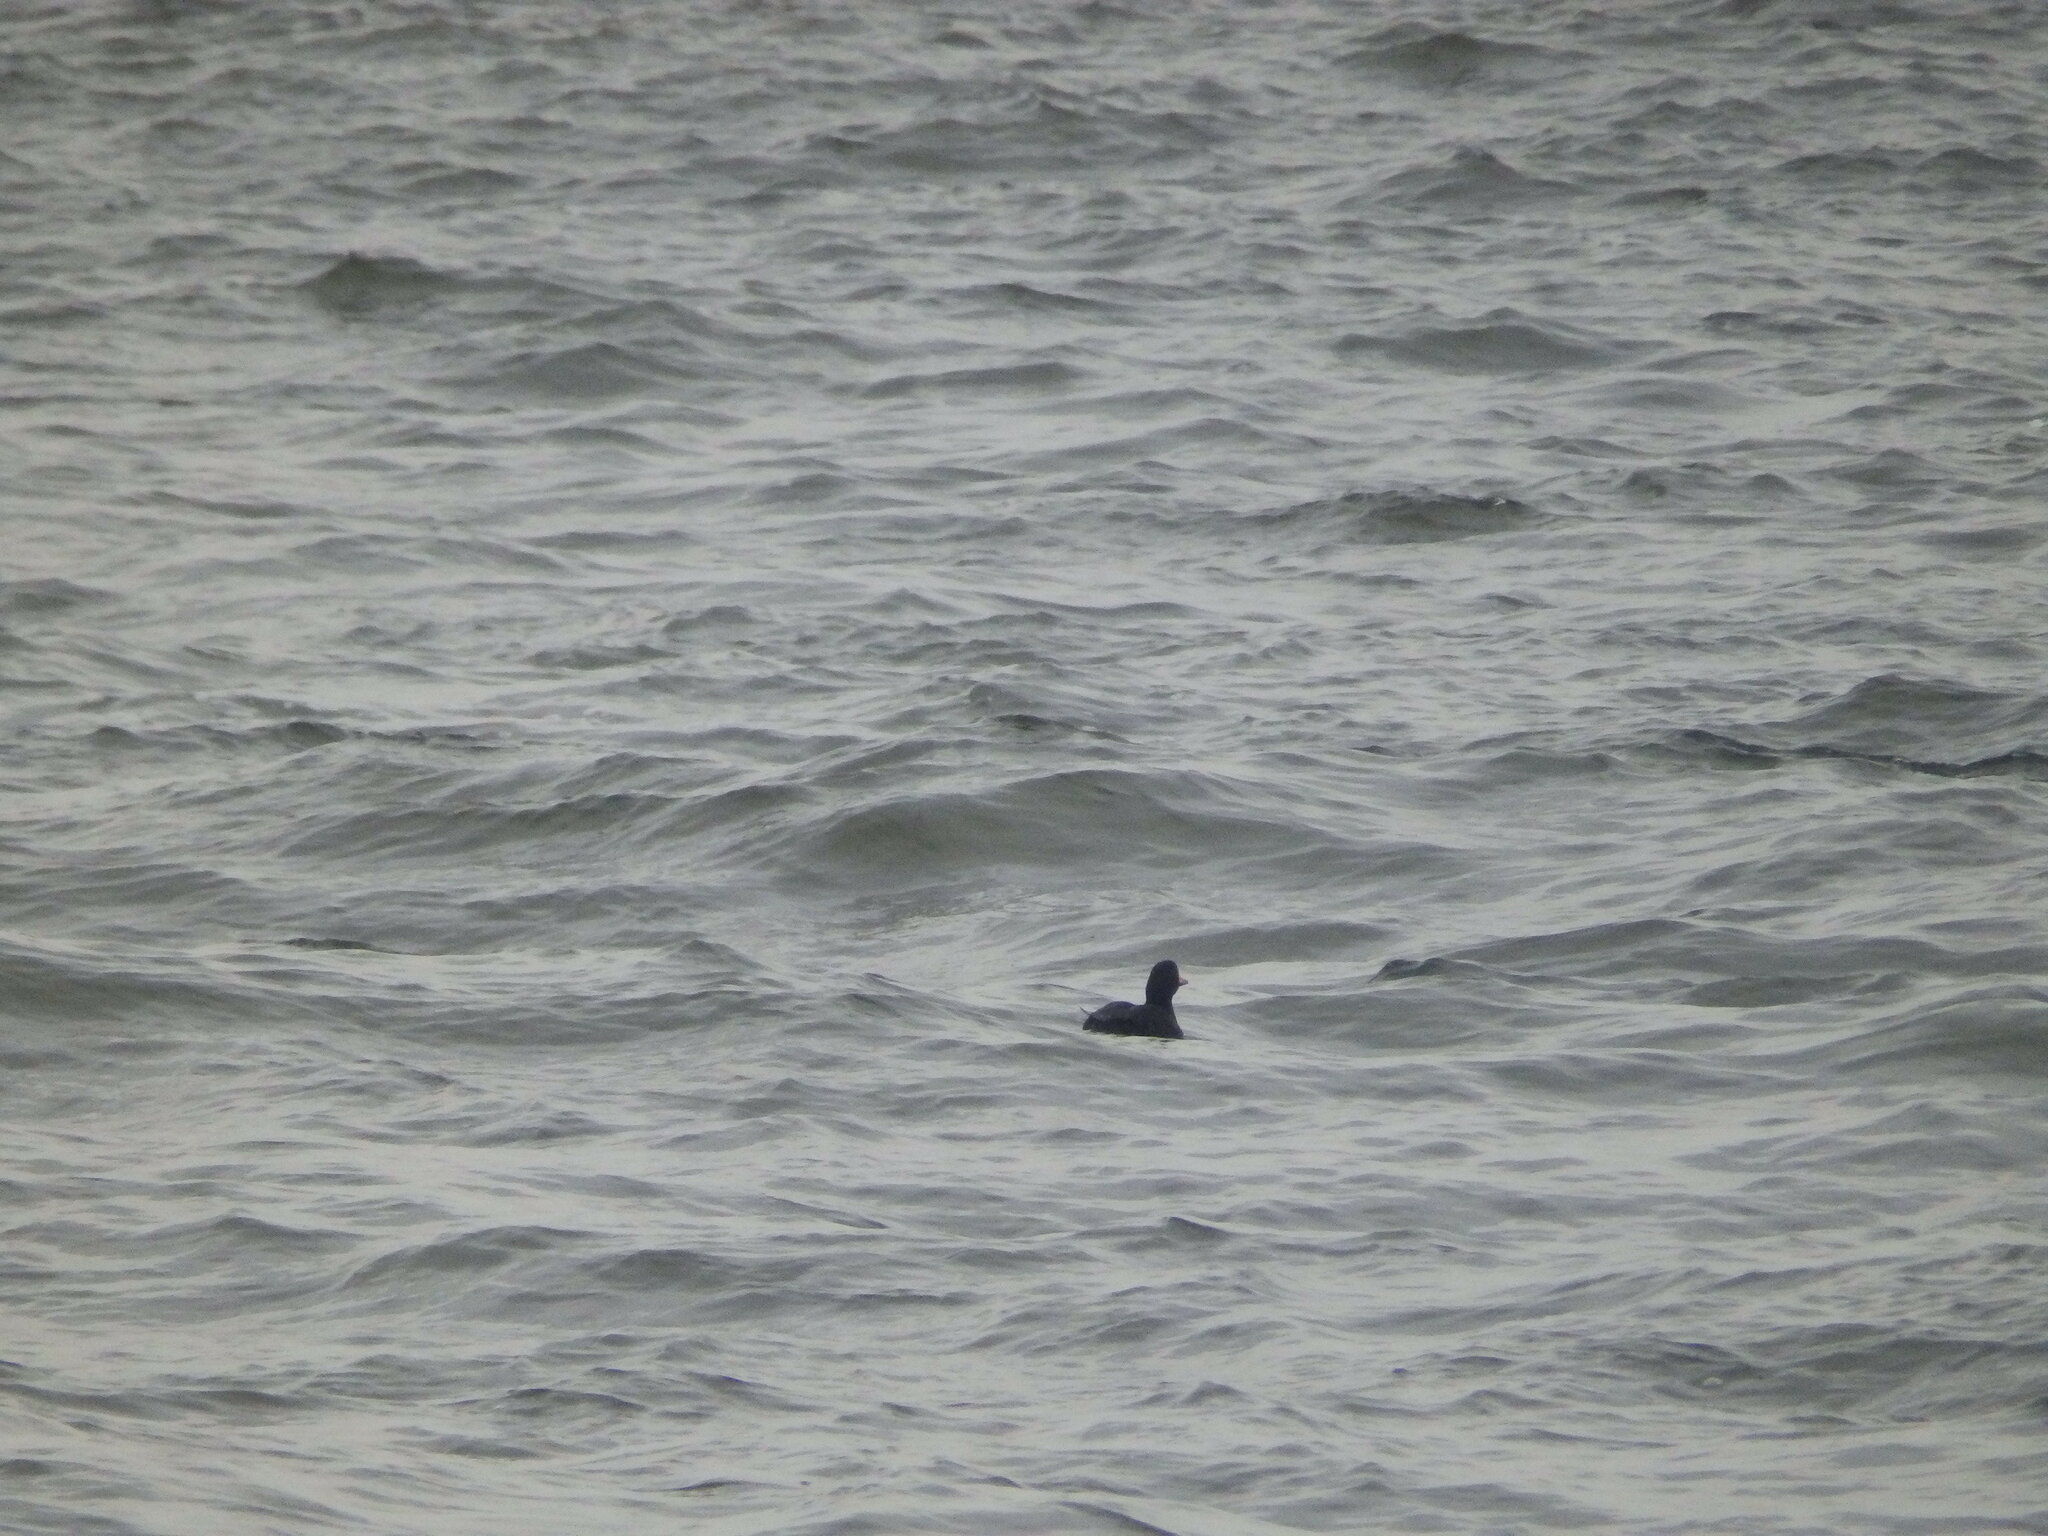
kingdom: Animalia
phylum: Chordata
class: Aves
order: Anseriformes
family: Anatidae
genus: Melanitta
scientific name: Melanitta americana
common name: Black scoter
